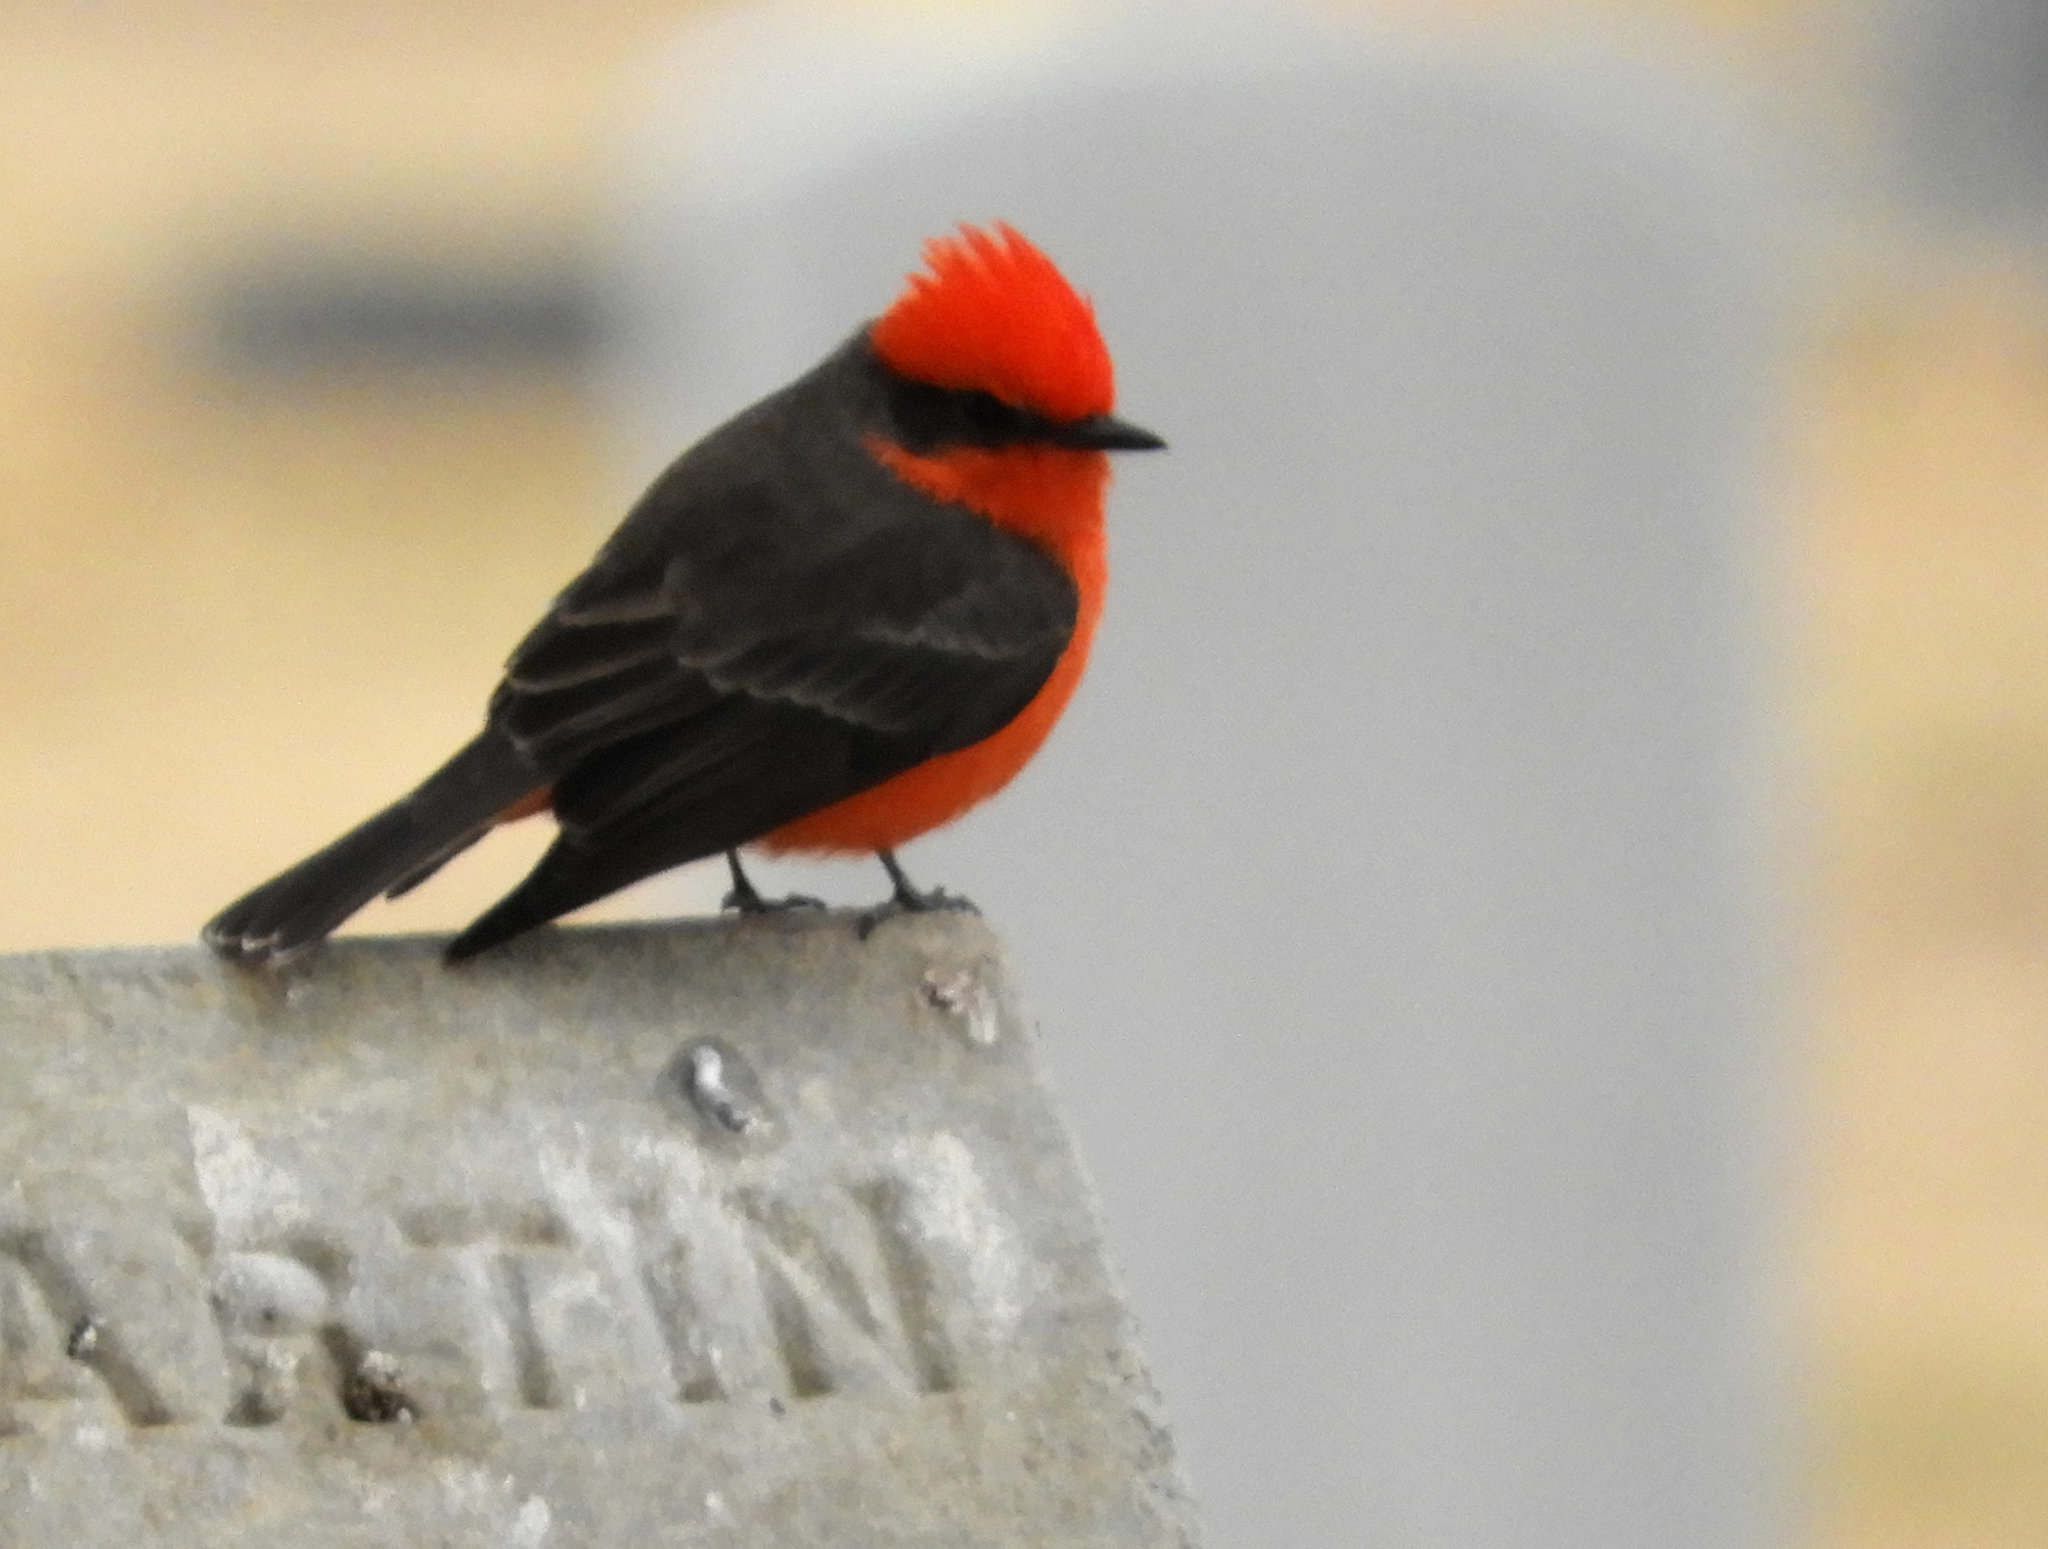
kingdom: Animalia
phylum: Chordata
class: Aves
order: Passeriformes
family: Tyrannidae
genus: Pyrocephalus
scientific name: Pyrocephalus rubinus
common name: Vermilion flycatcher
